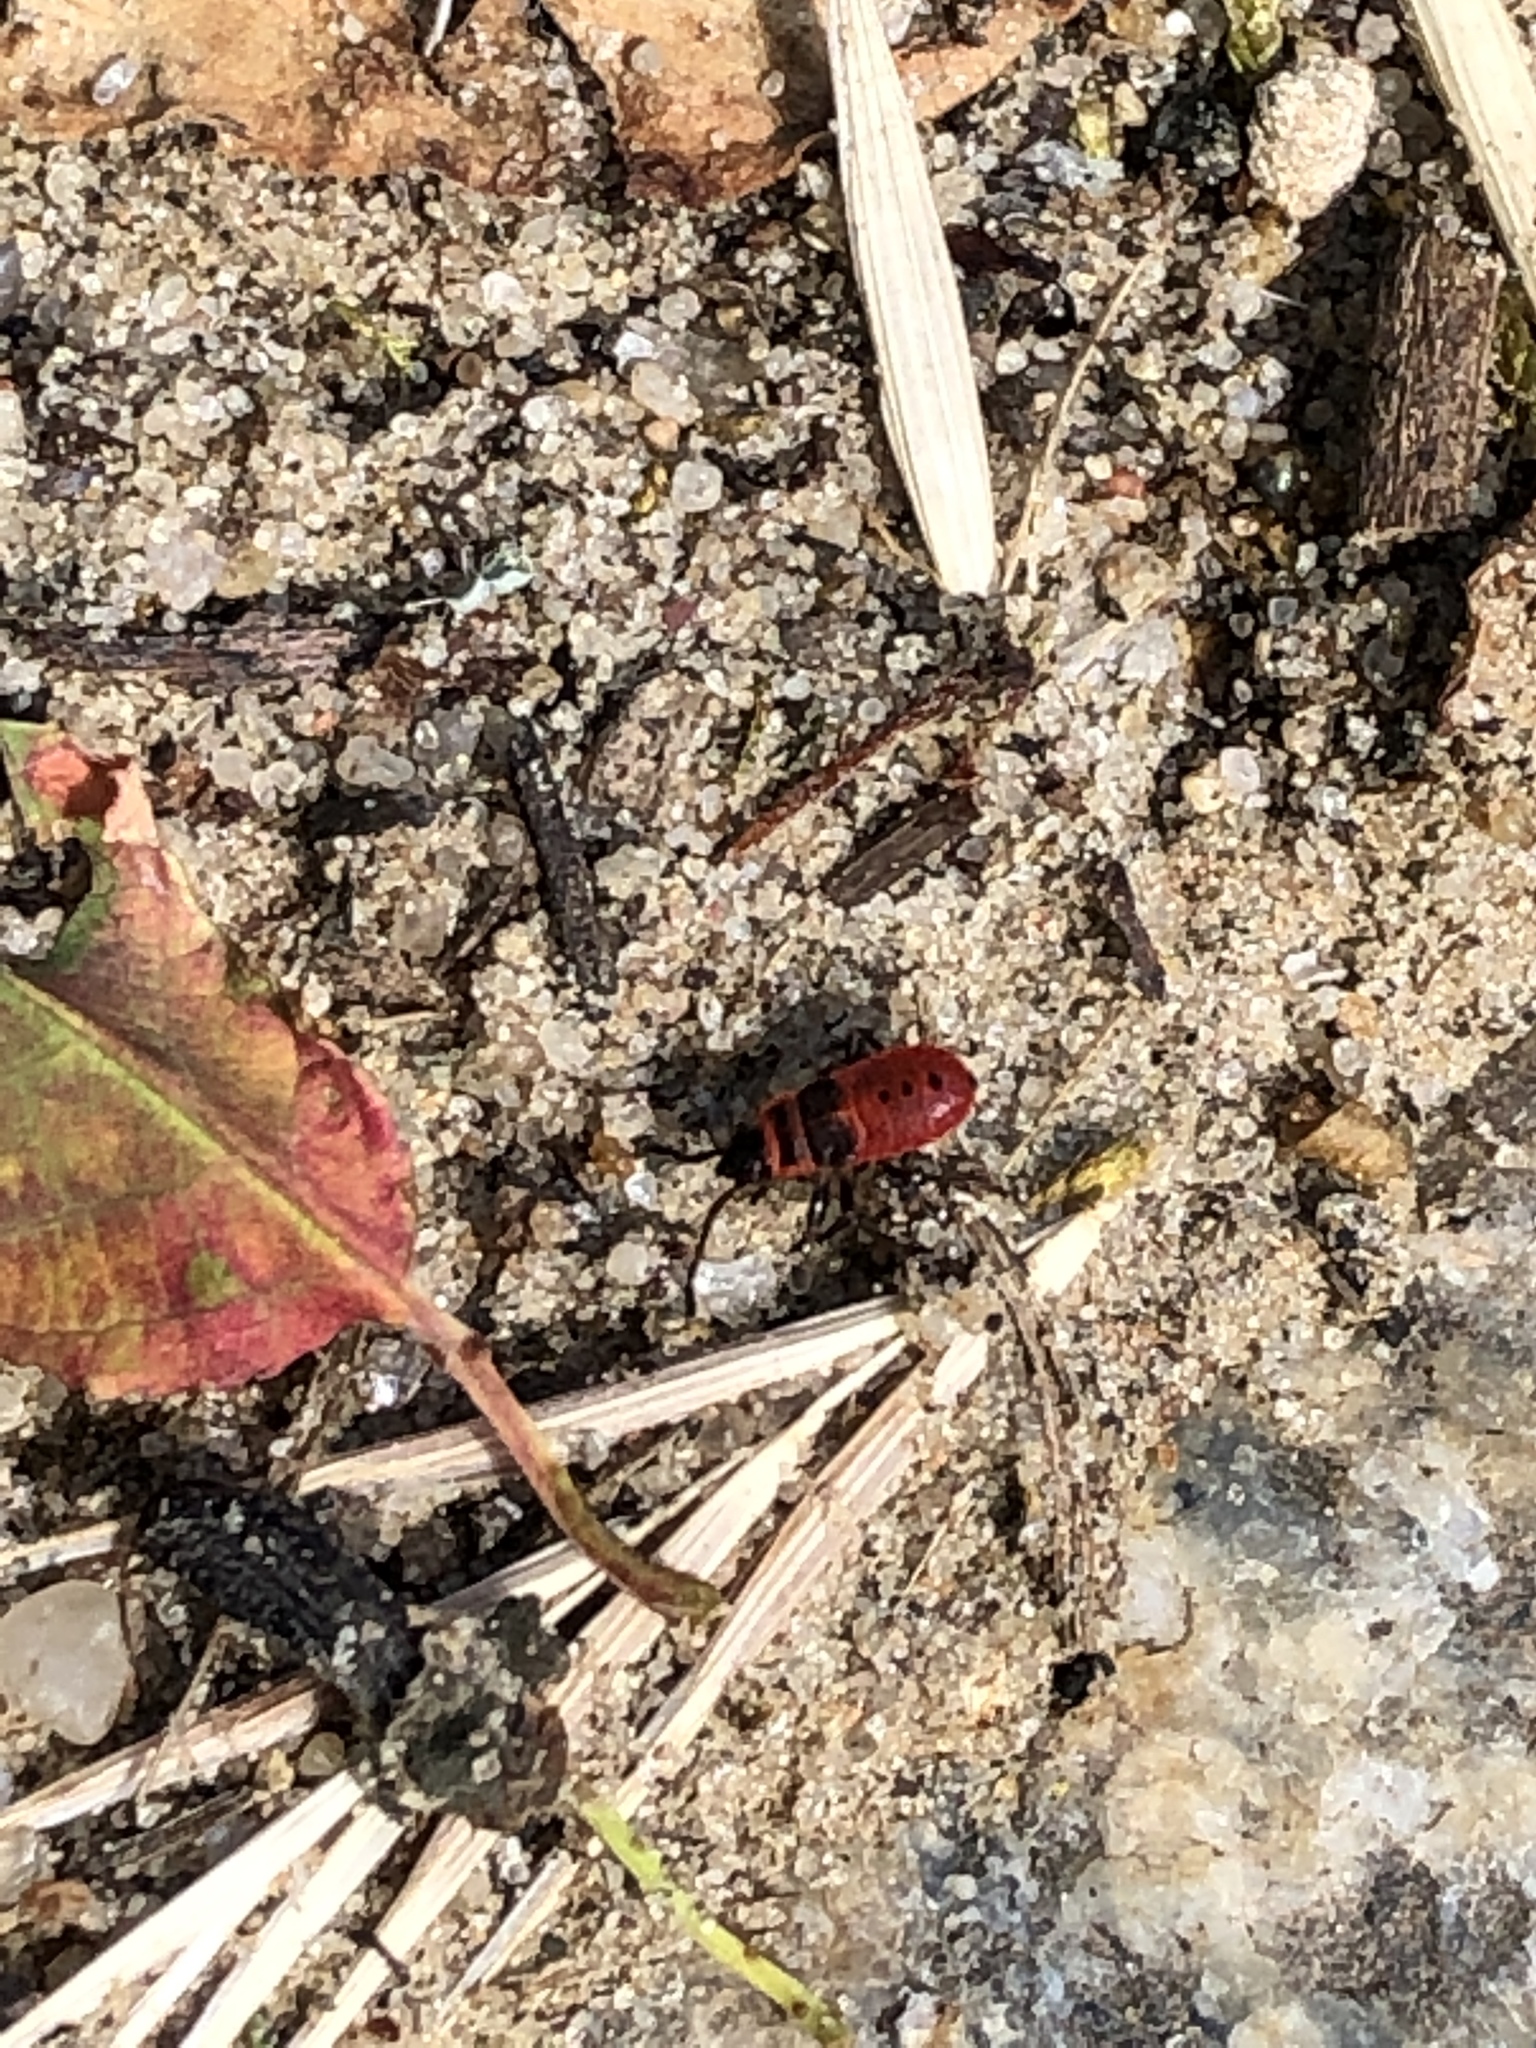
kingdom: Animalia
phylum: Arthropoda
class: Insecta
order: Hemiptera
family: Pyrrhocoridae
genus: Pyrrhocoris
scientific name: Pyrrhocoris apterus
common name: Firebug
